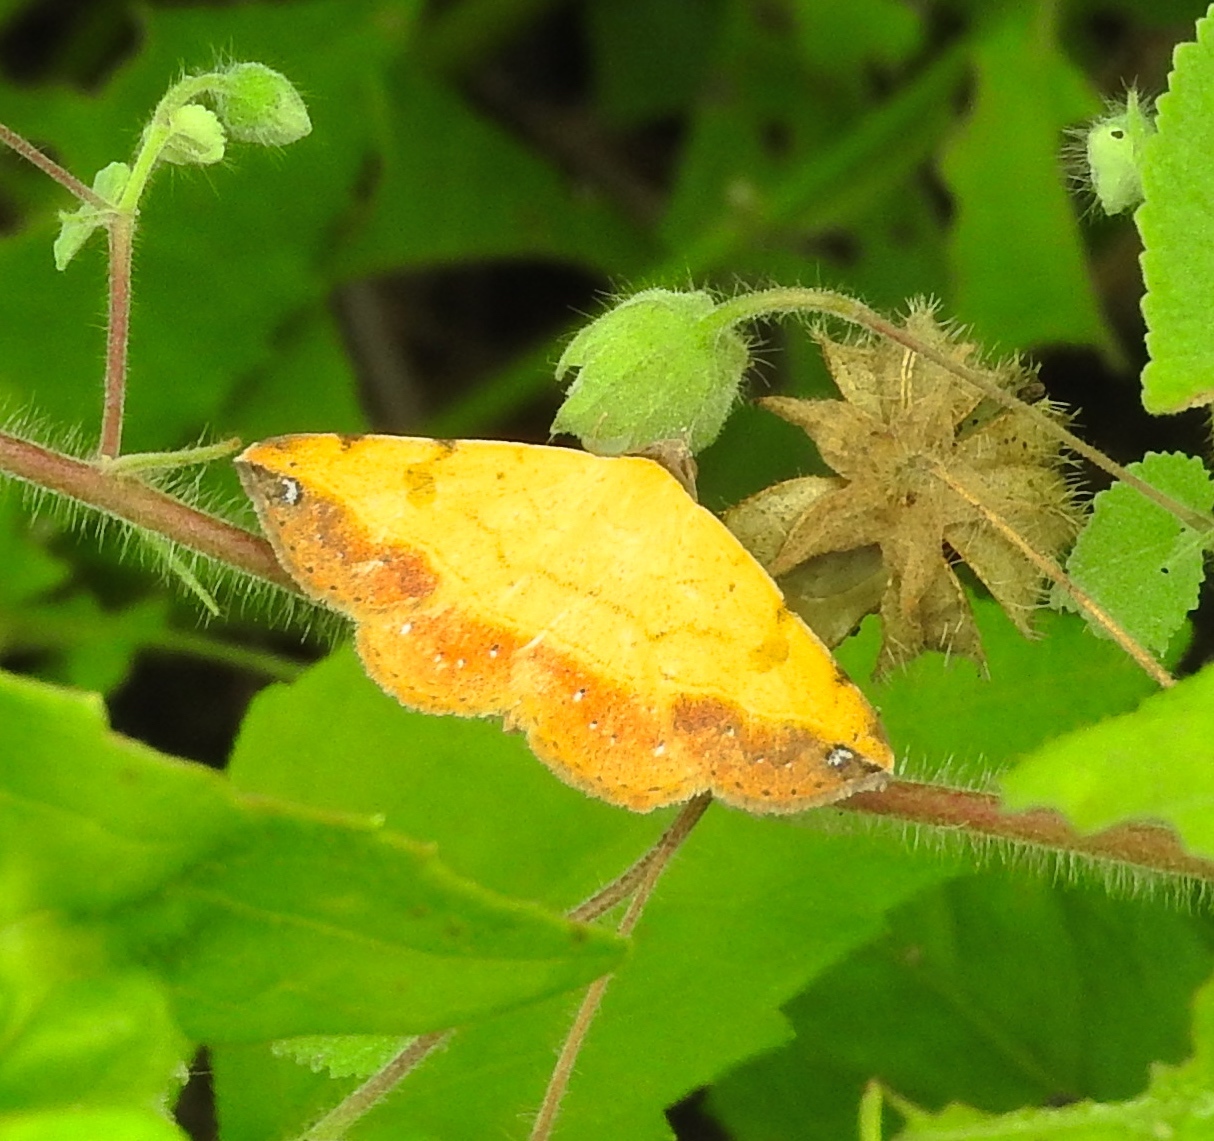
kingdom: Animalia
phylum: Arthropoda
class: Insecta
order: Lepidoptera
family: Erebidae
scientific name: Erebidae
